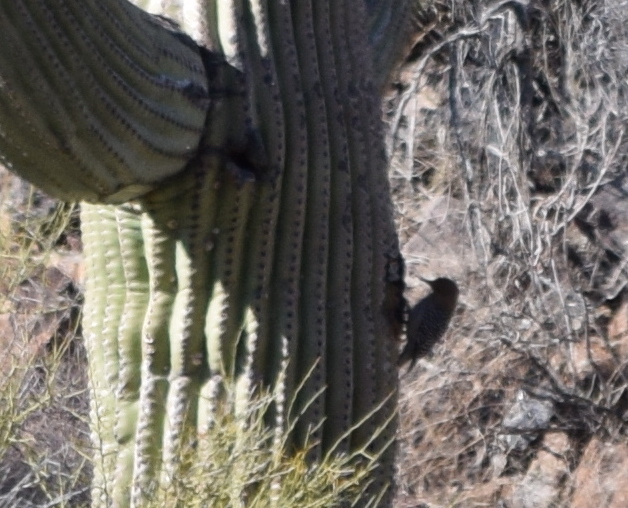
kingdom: Animalia
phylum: Chordata
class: Aves
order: Piciformes
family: Picidae
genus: Melanerpes
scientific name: Melanerpes uropygialis
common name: Gila woodpecker
